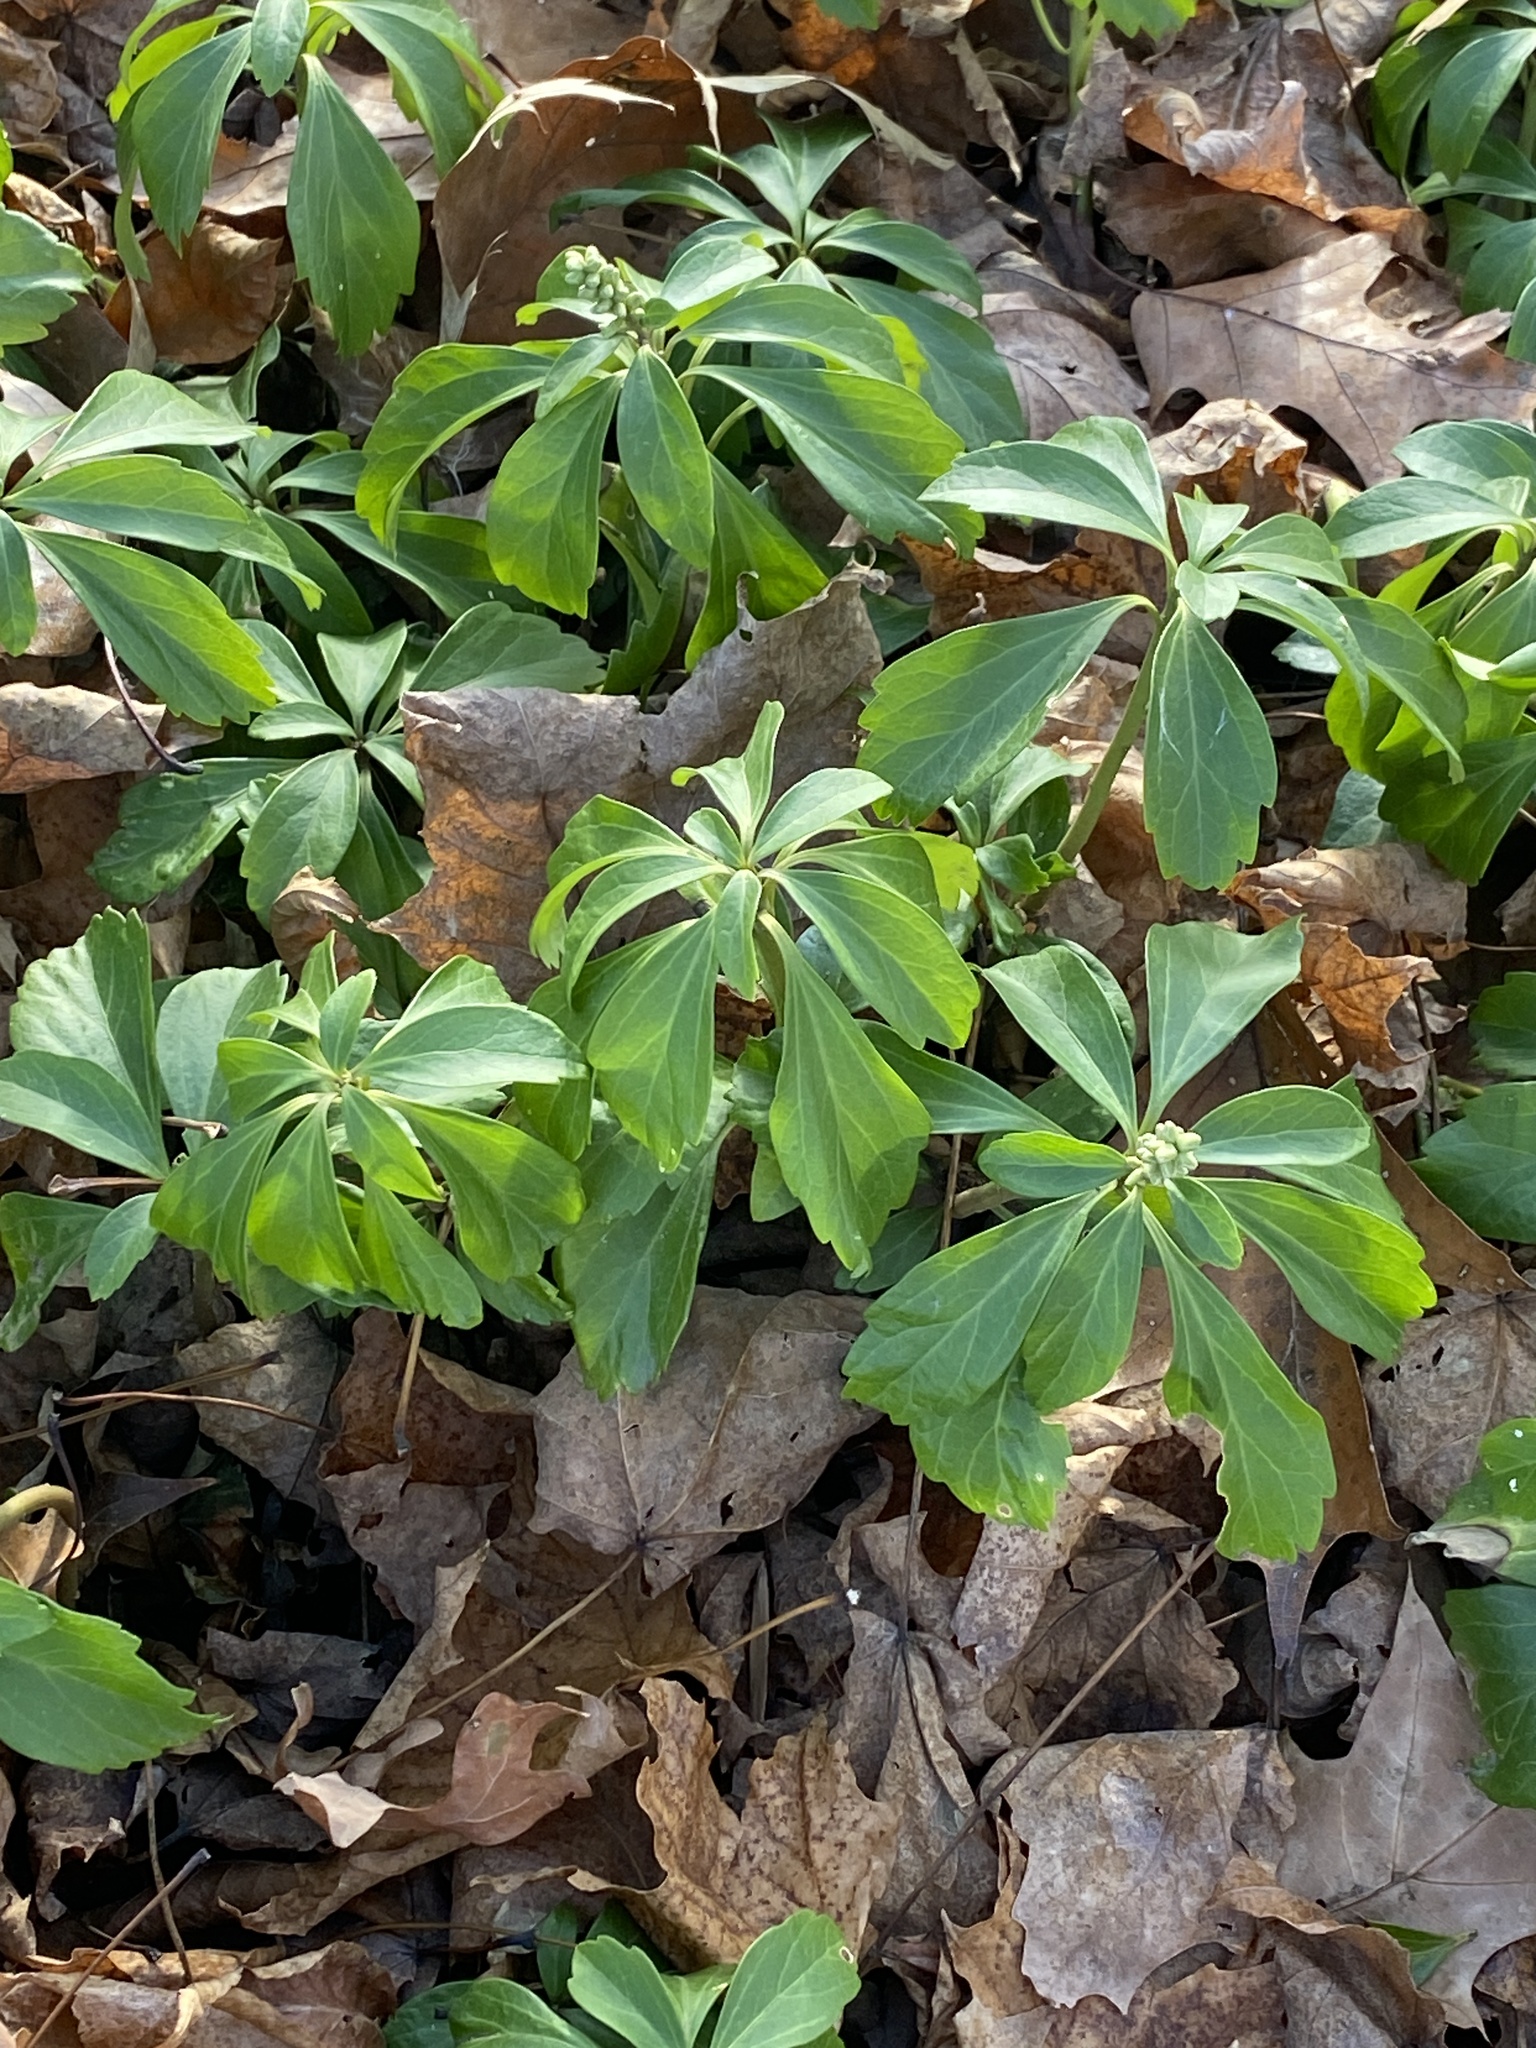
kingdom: Plantae
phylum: Tracheophyta
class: Magnoliopsida
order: Buxales
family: Buxaceae
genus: Pachysandra
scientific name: Pachysandra terminalis
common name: Japanese pachysandra
